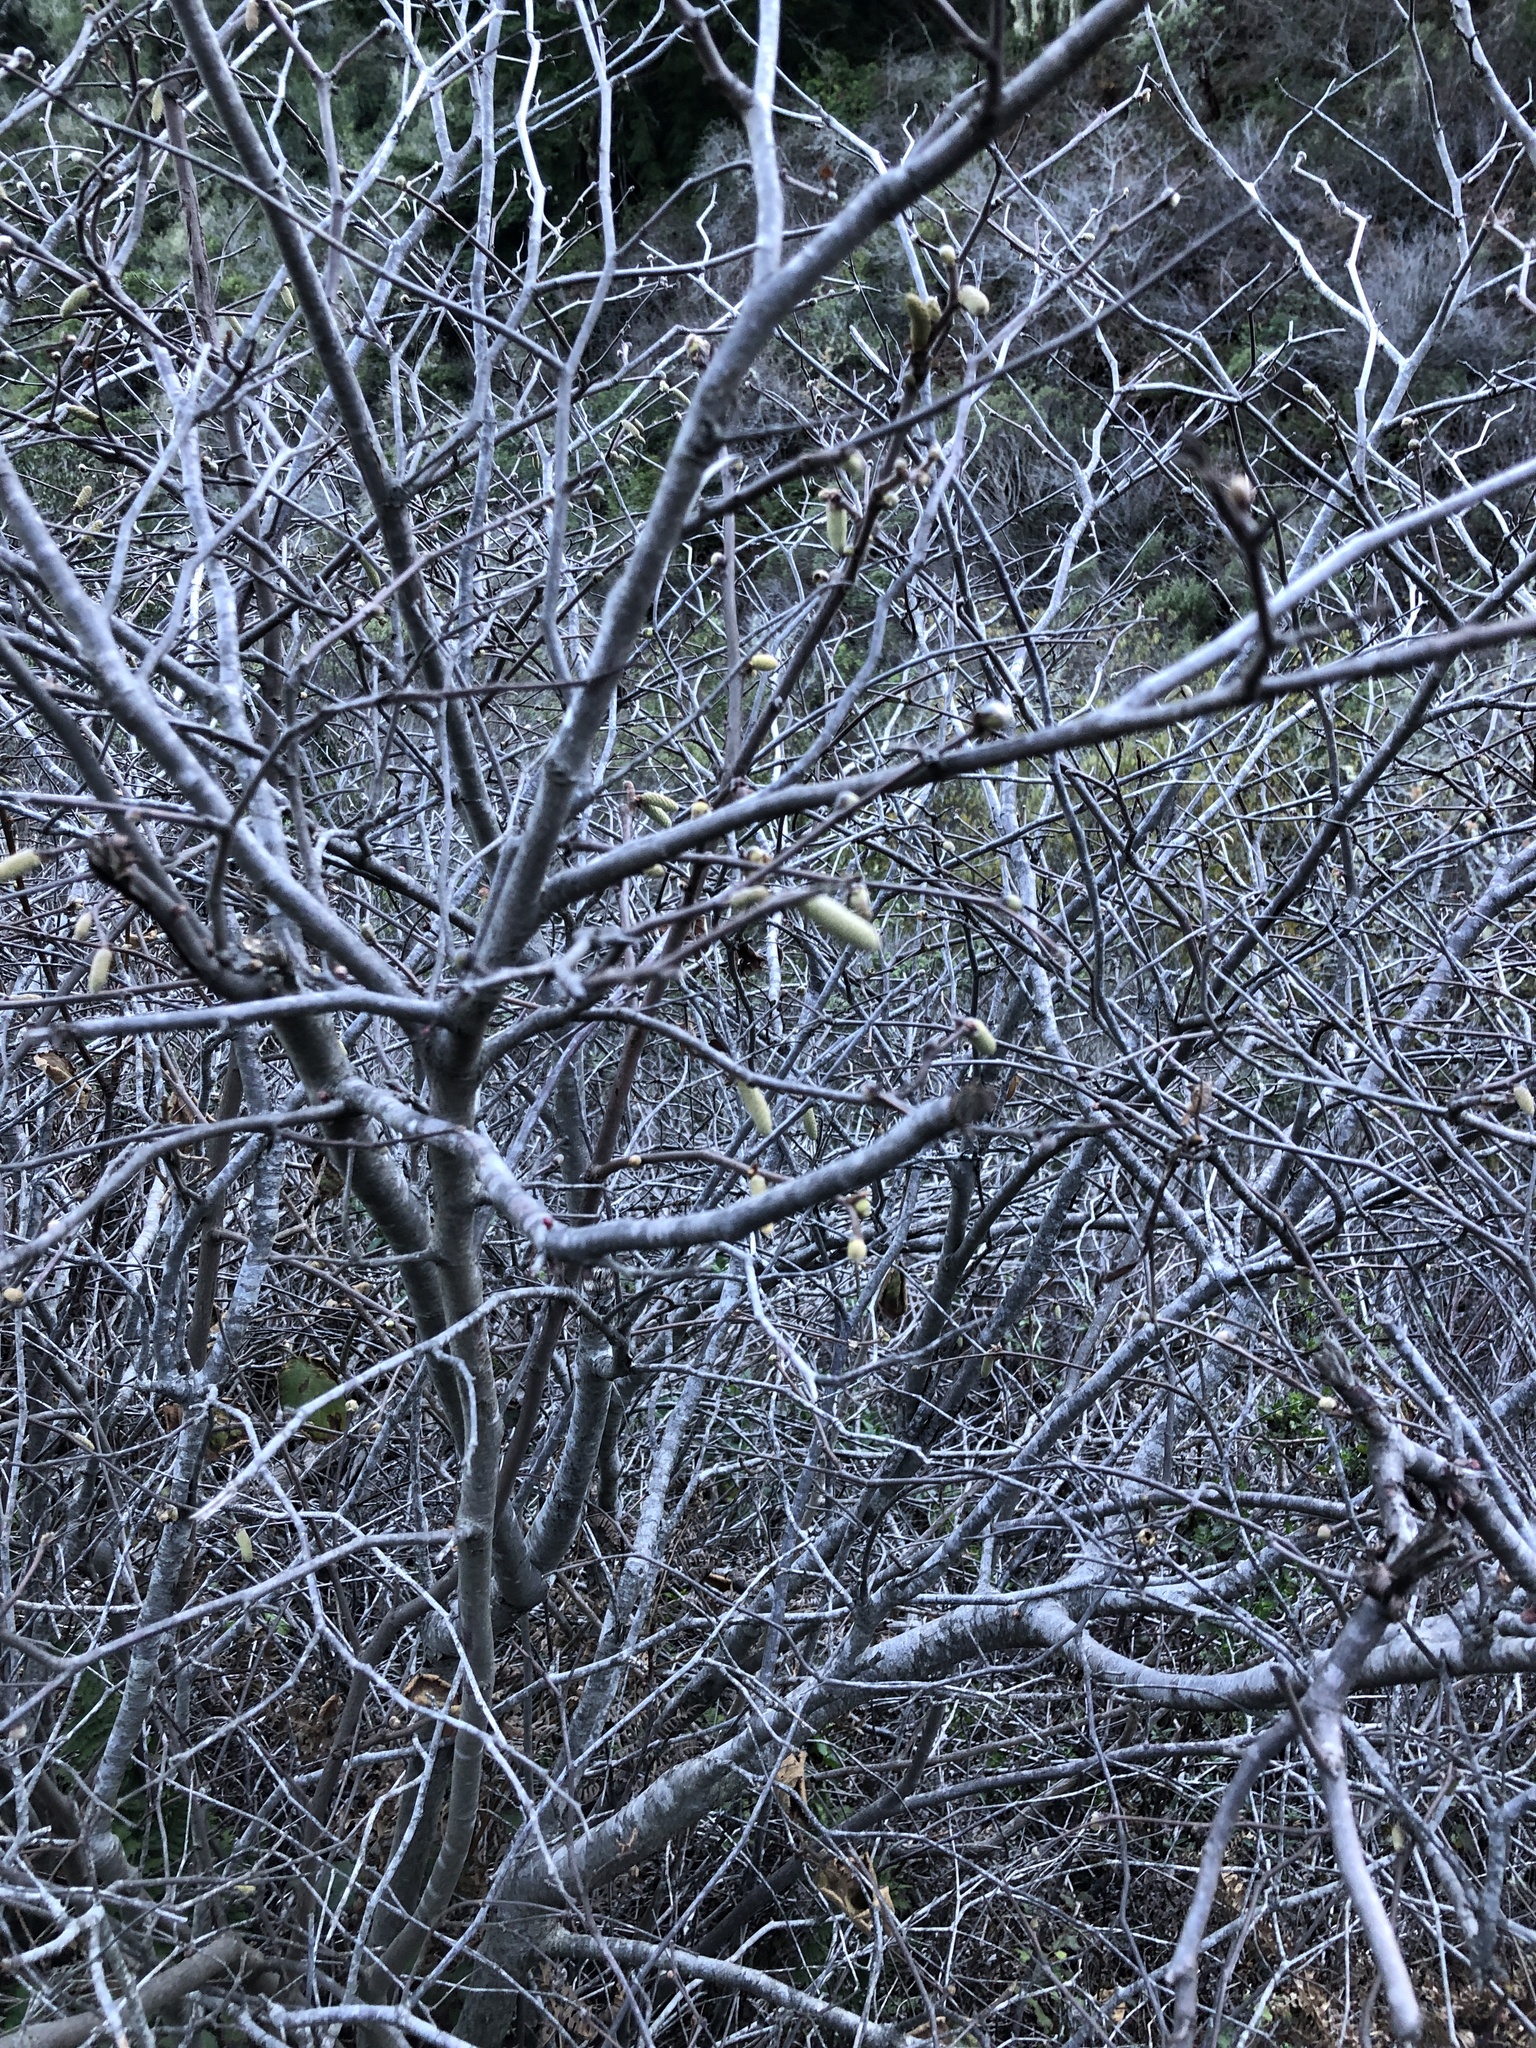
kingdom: Plantae
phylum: Tracheophyta
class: Magnoliopsida
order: Fagales
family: Betulaceae
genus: Corylus
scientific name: Corylus cornuta
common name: Beaked hazel
